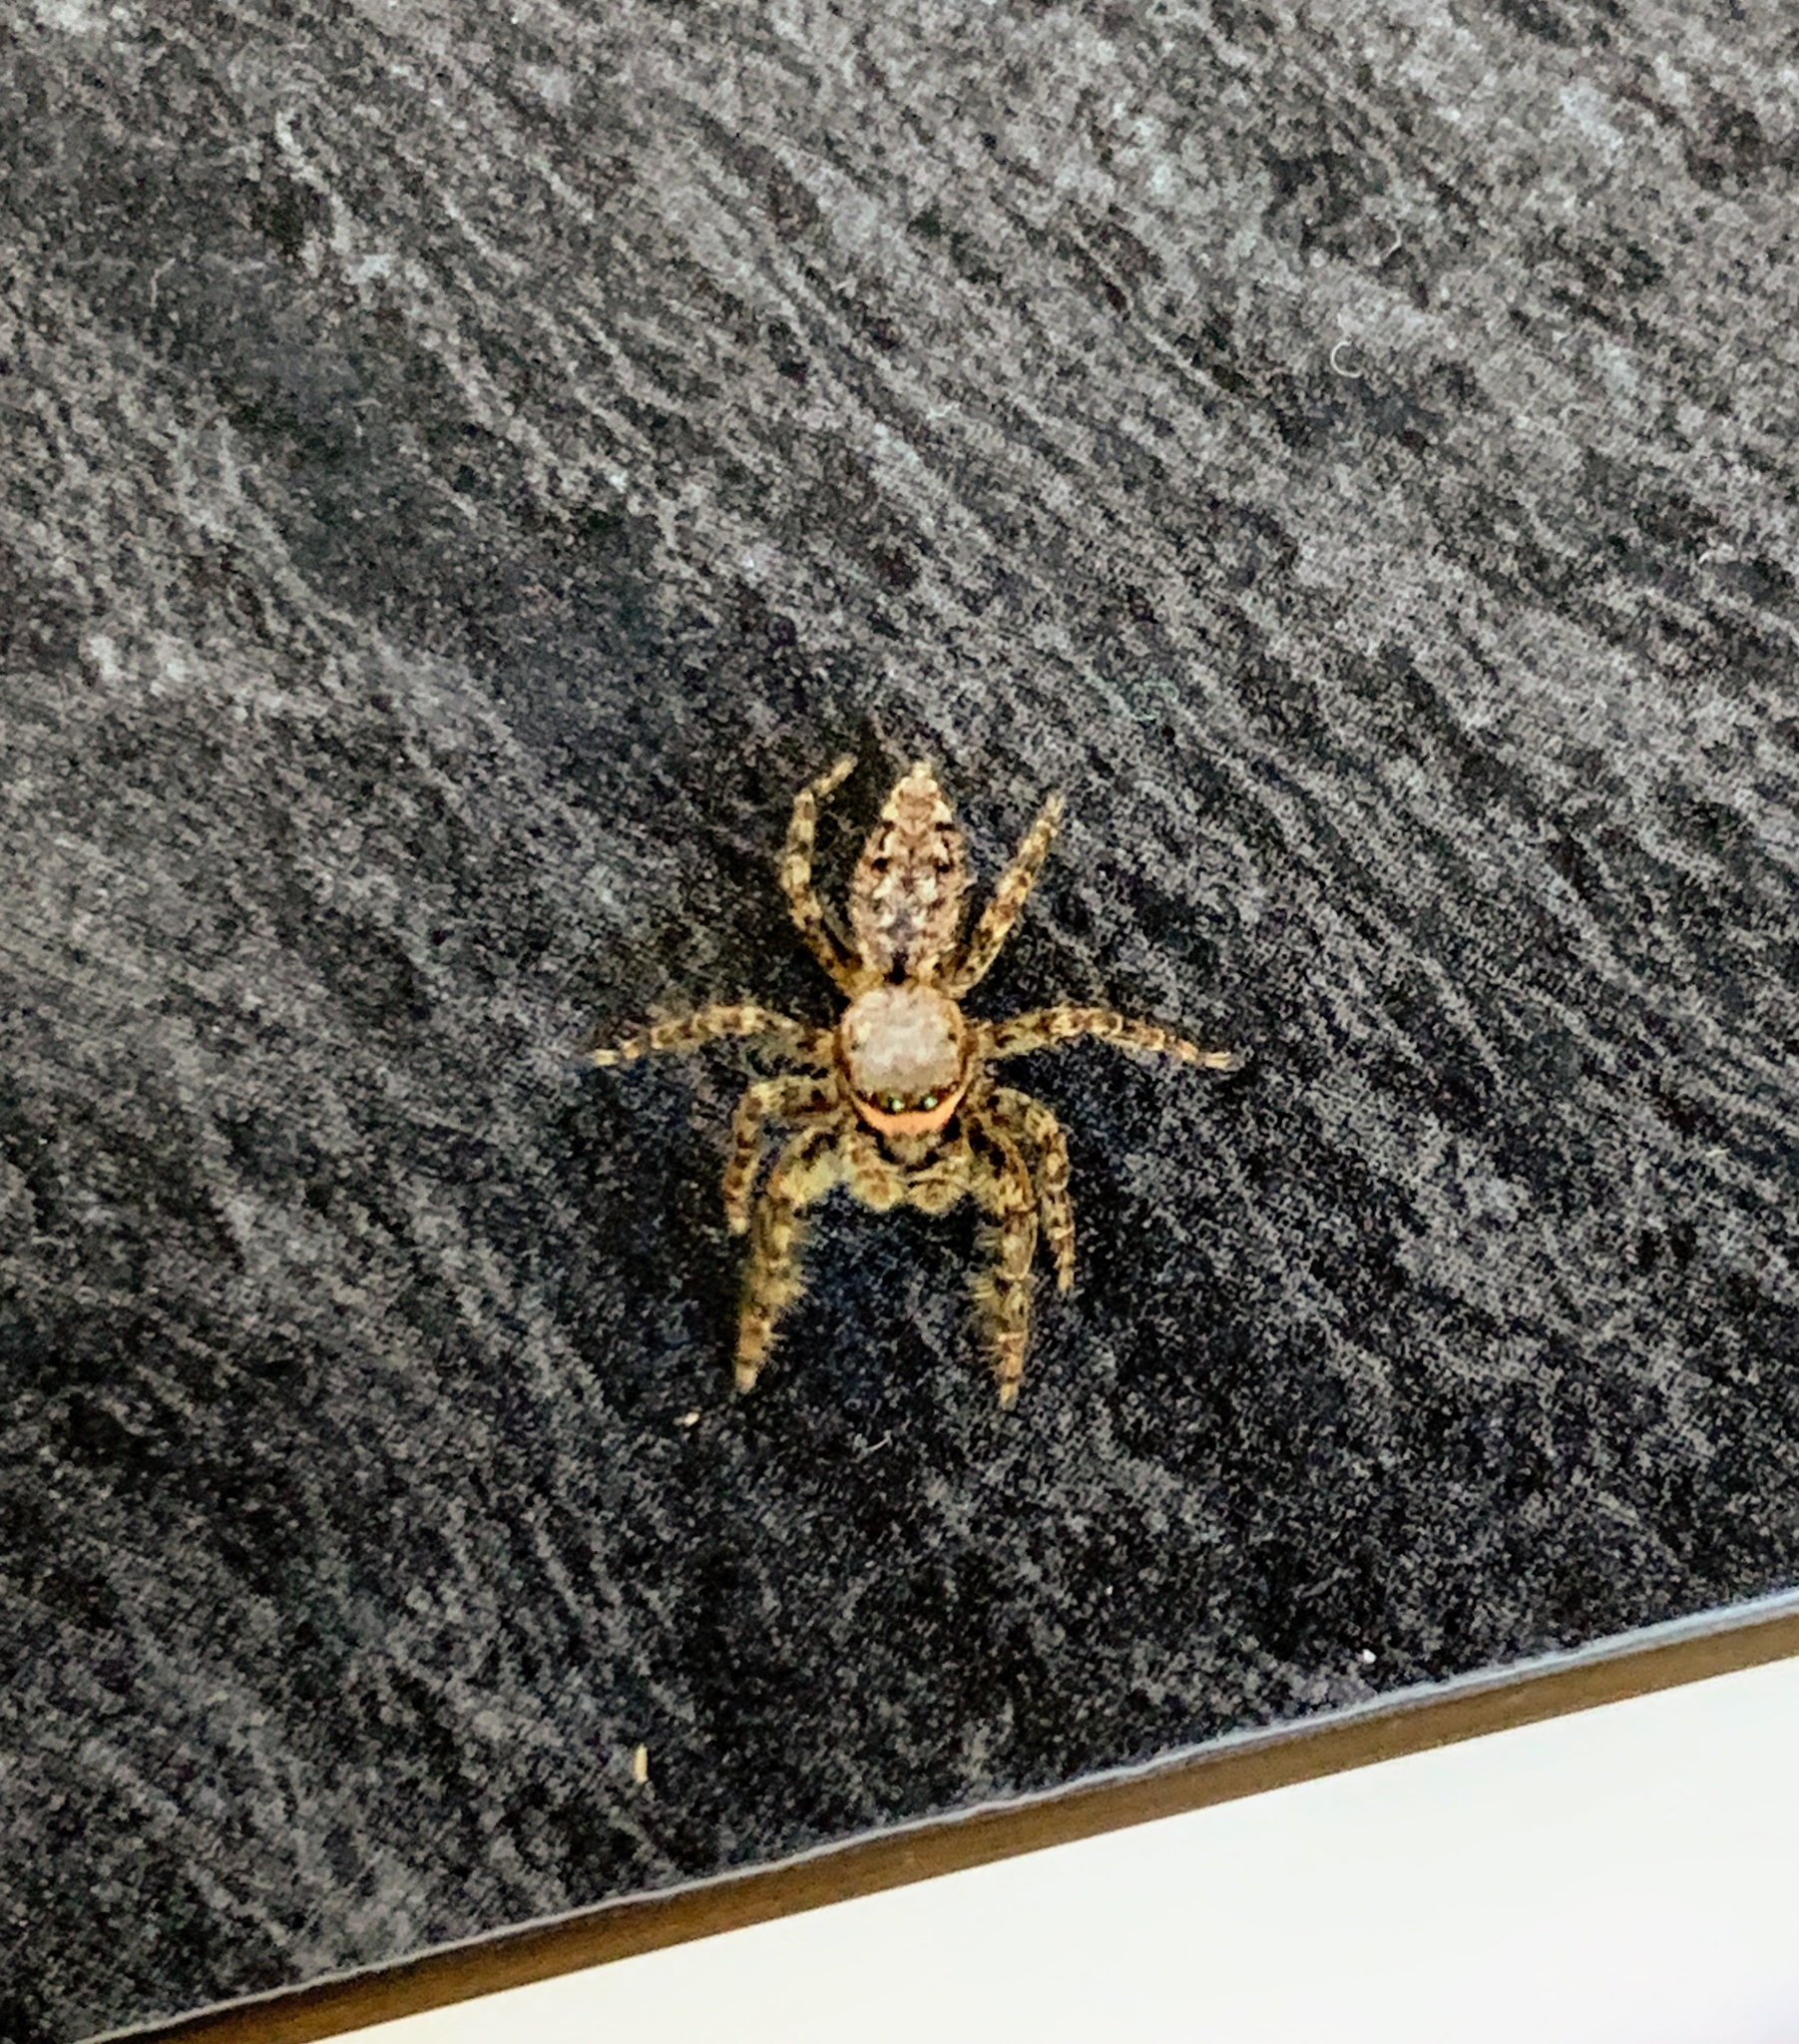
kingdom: Animalia
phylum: Arthropoda
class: Arachnida
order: Araneae
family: Salticidae
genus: Marpissa
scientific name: Marpissa muscosa
